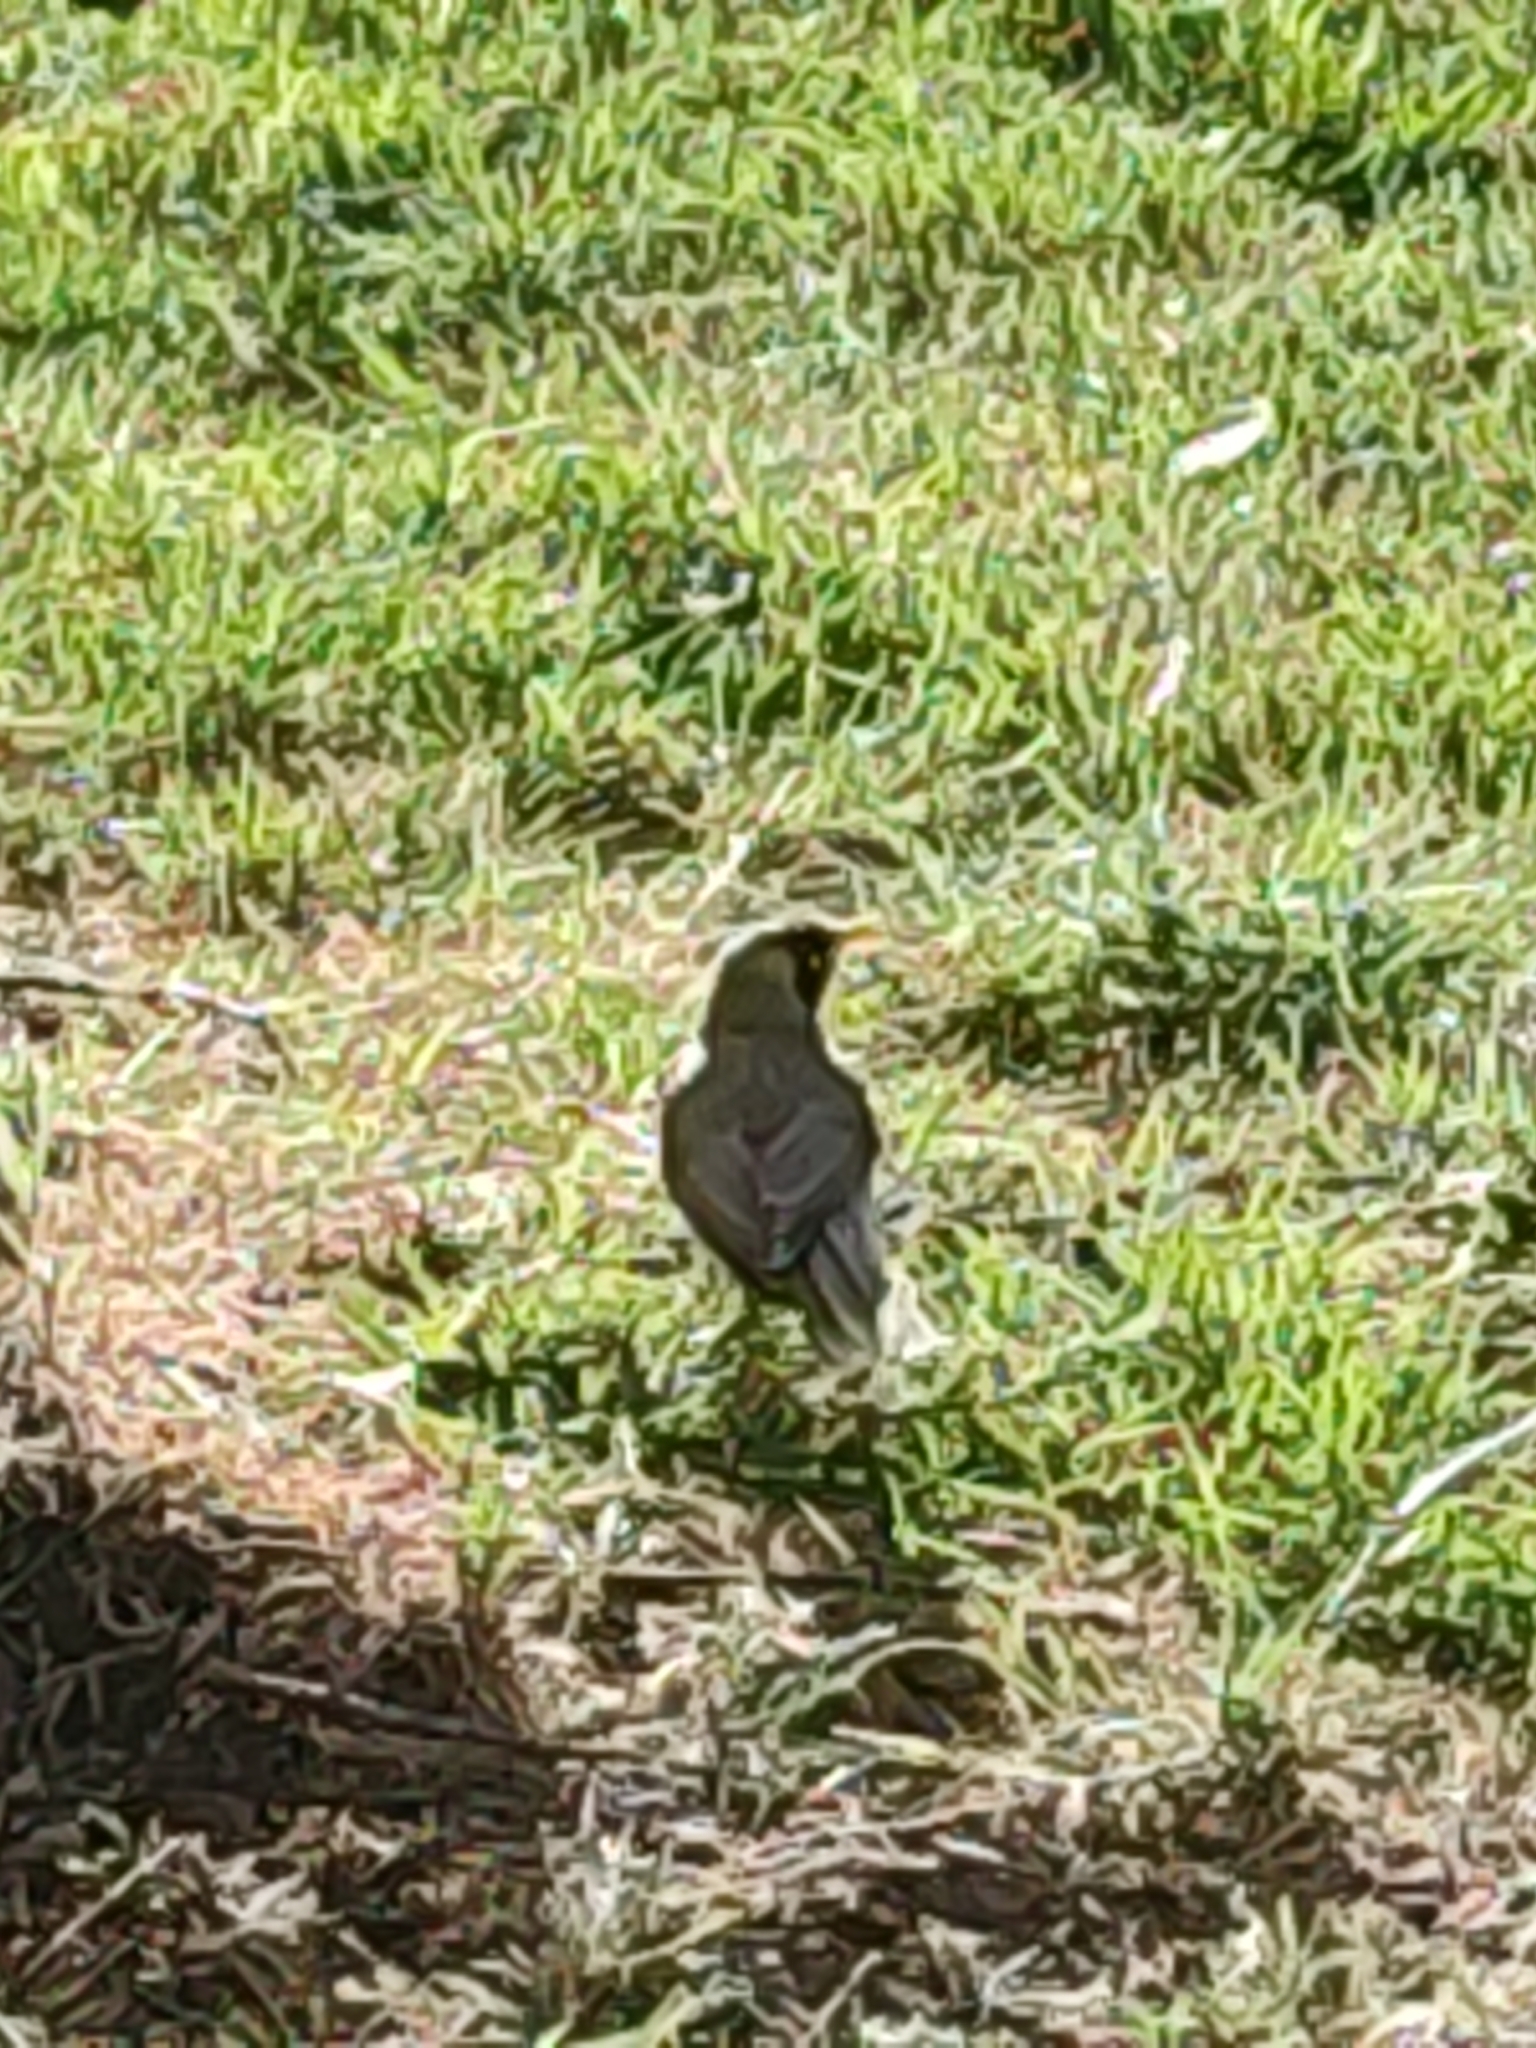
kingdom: Animalia
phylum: Chordata
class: Aves
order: Passeriformes
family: Meliphagidae
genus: Manorina
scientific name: Manorina melanocephala
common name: Noisy miner
